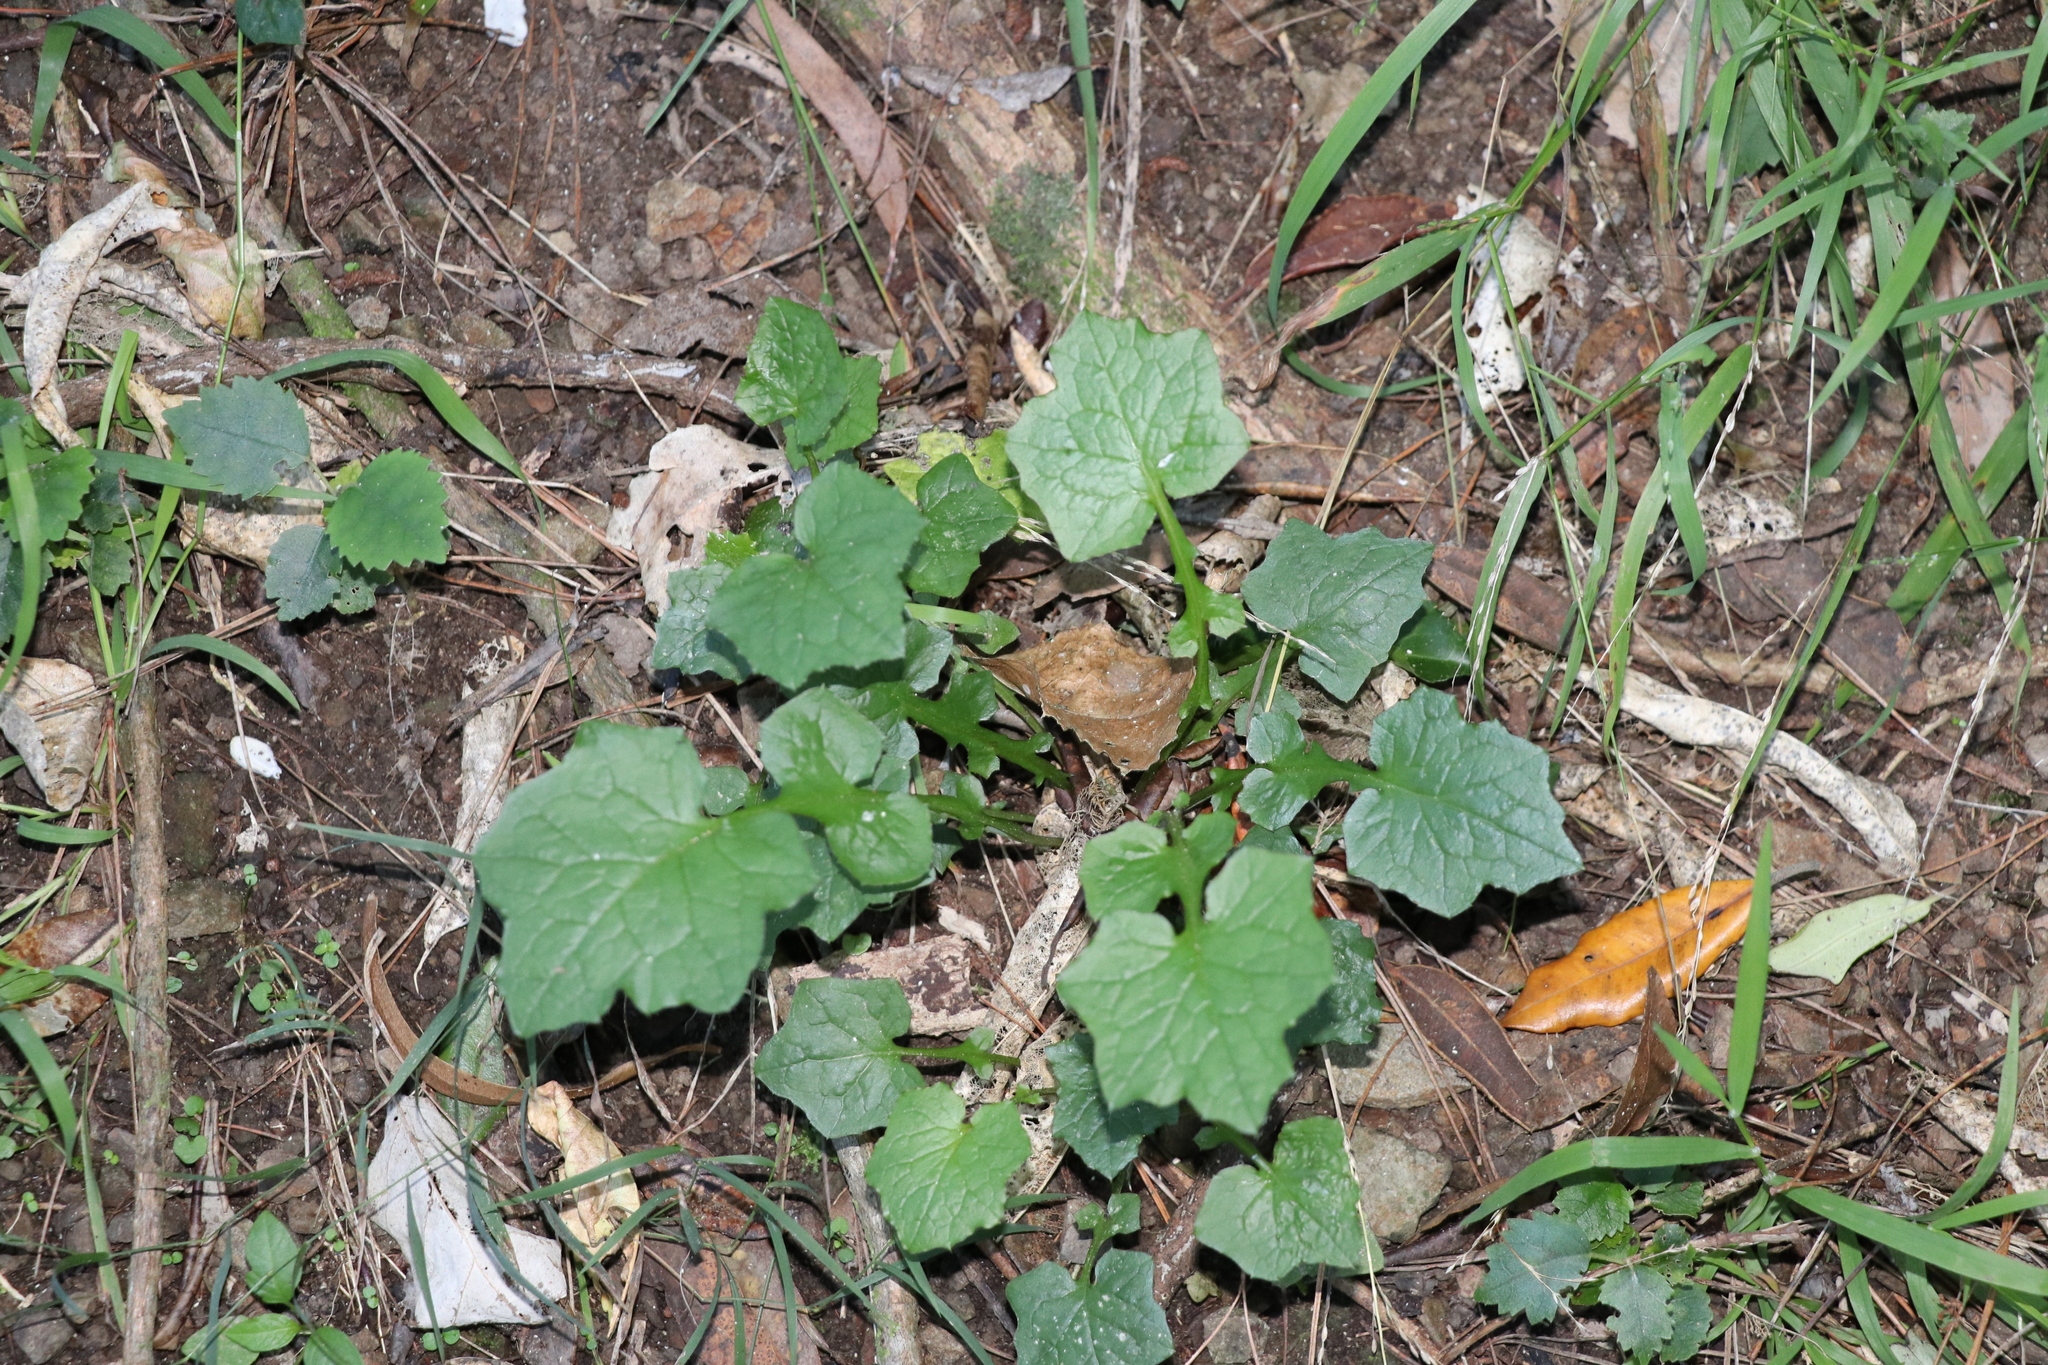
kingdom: Plantae
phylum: Tracheophyta
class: Magnoliopsida
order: Asterales
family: Asteraceae
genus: Mycelis
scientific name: Mycelis muralis
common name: Wall lettuce
